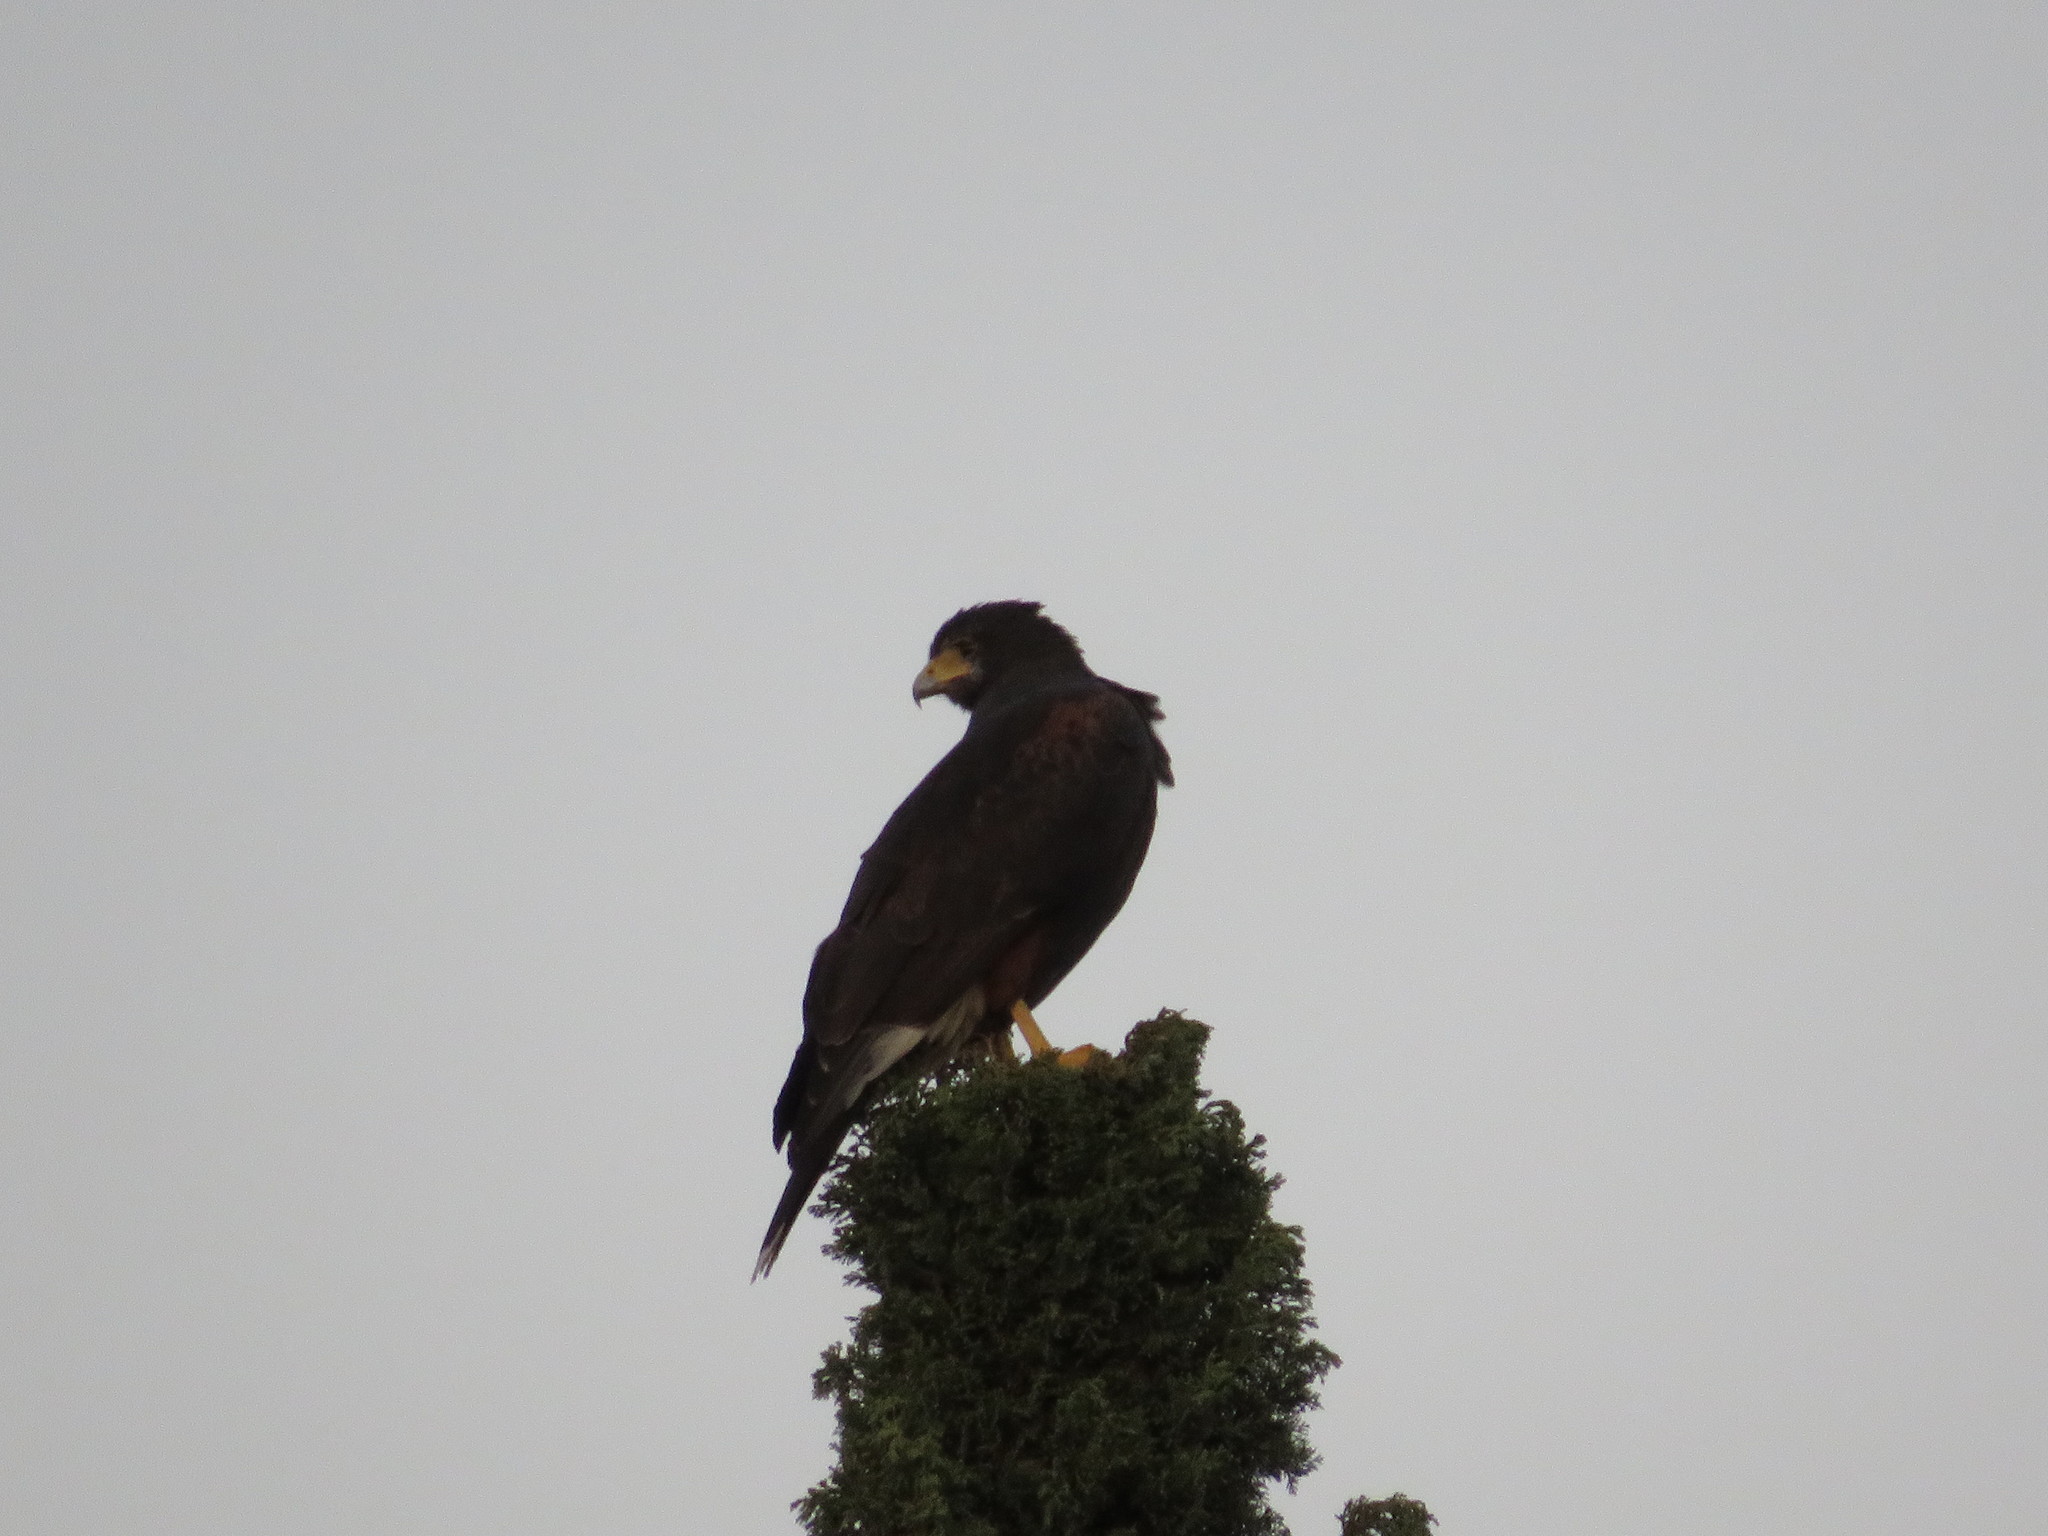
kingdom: Animalia
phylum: Chordata
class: Aves
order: Accipitriformes
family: Accipitridae
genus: Parabuteo
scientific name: Parabuteo unicinctus
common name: Harris's hawk
